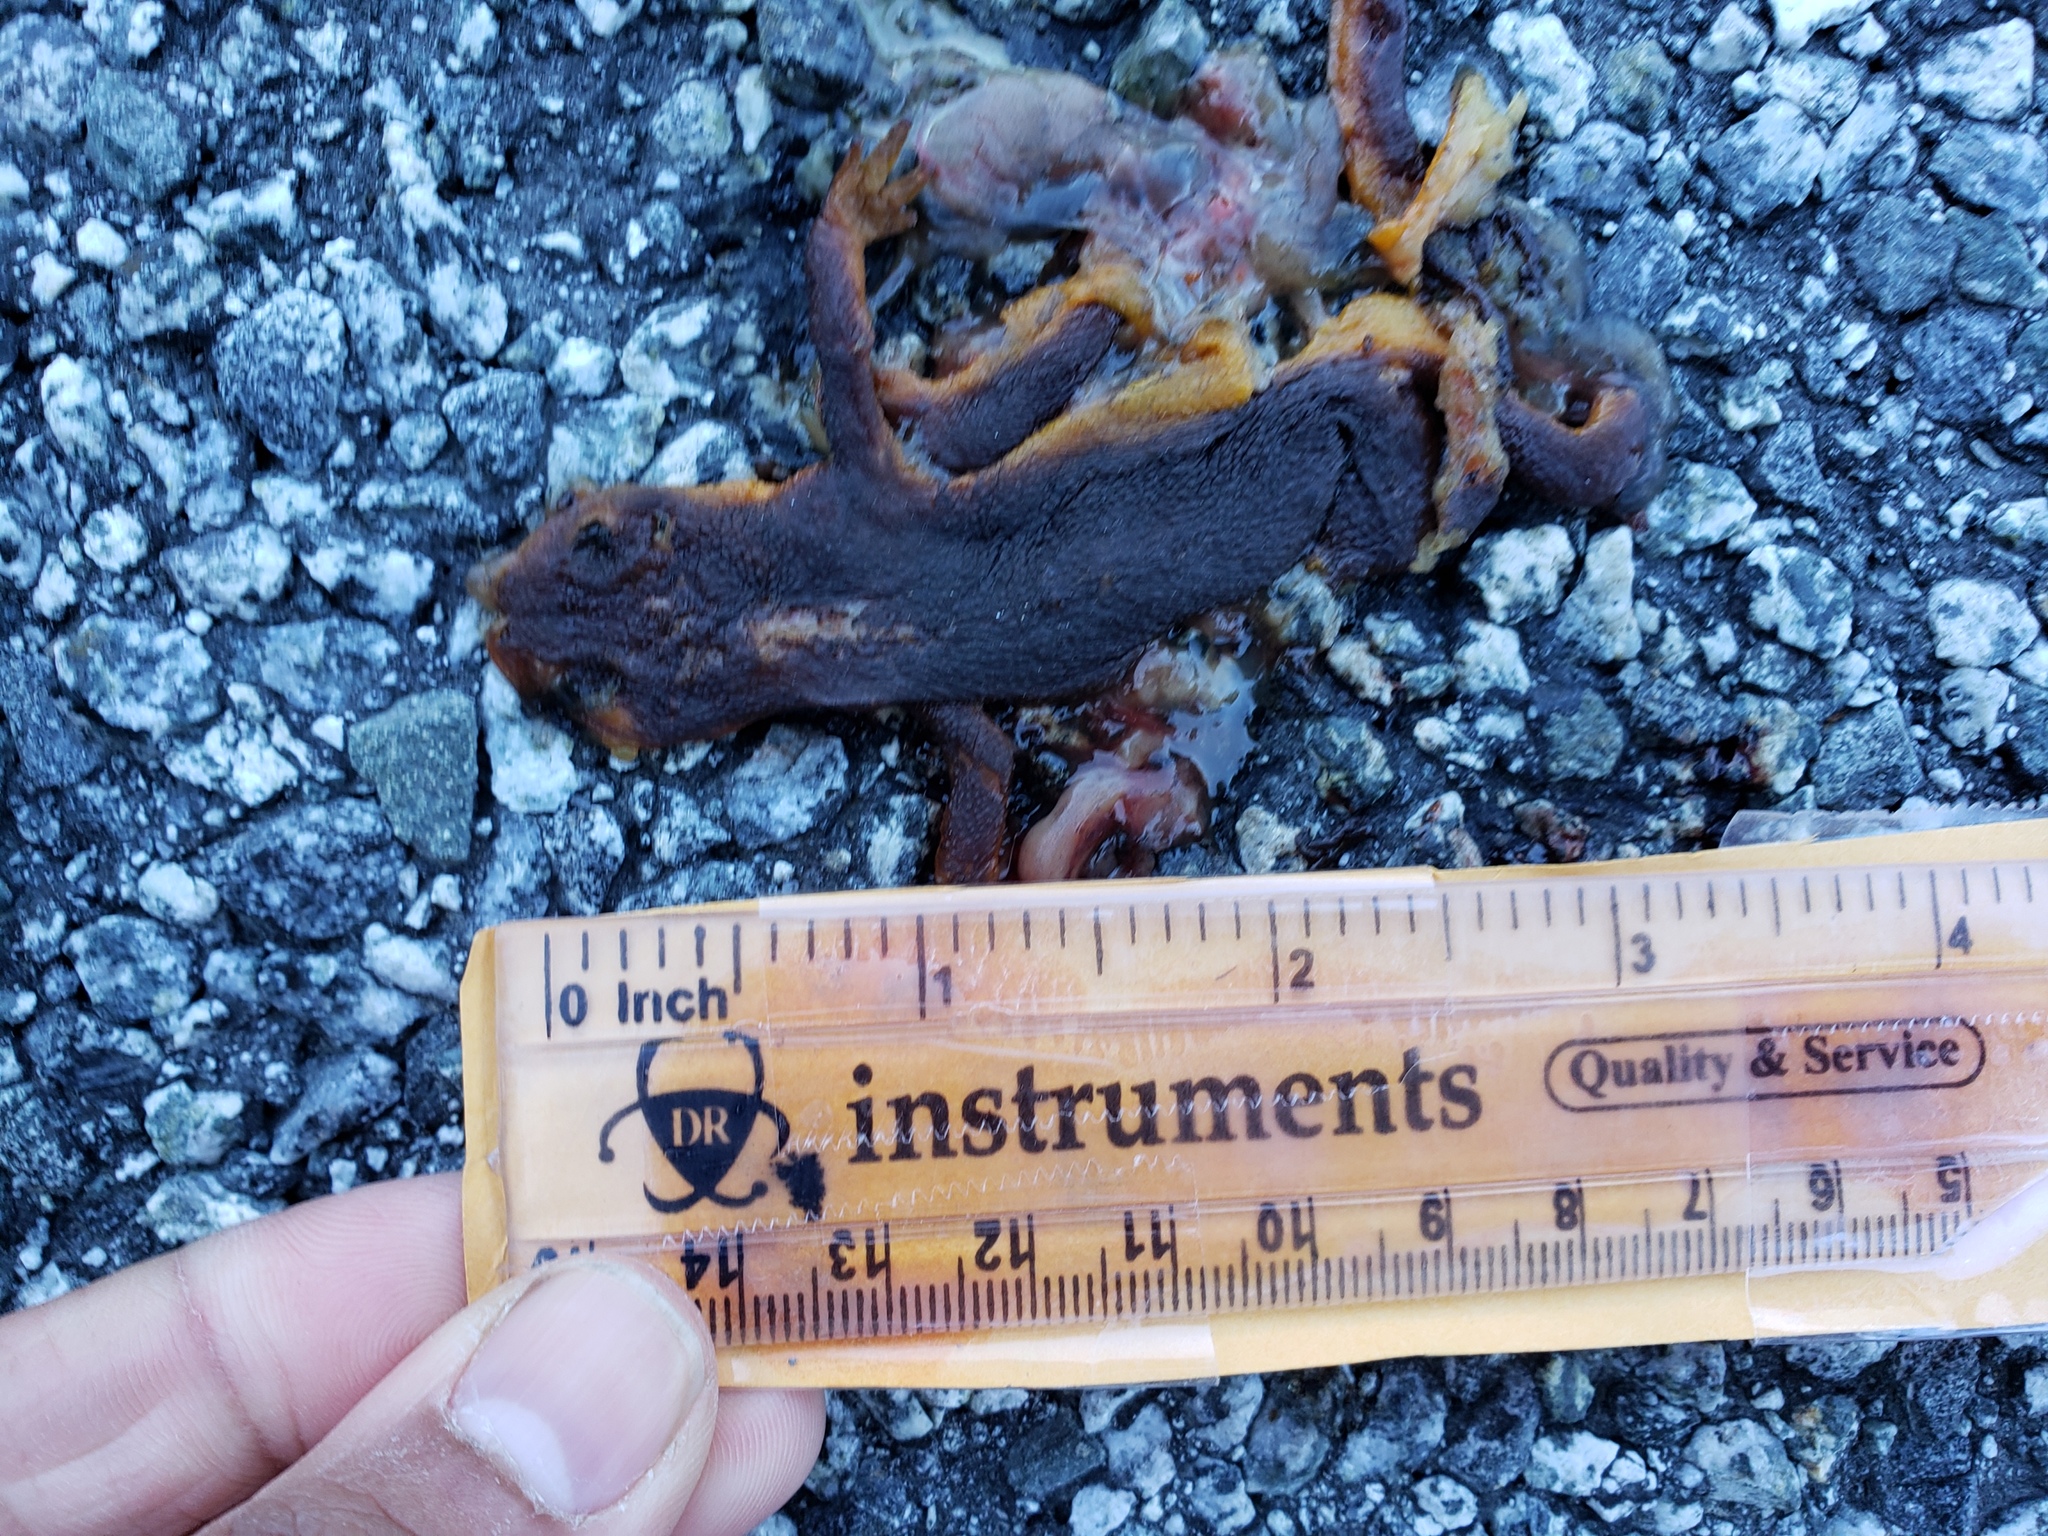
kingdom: Animalia
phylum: Chordata
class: Amphibia
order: Caudata
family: Salamandridae
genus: Taricha
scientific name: Taricha
